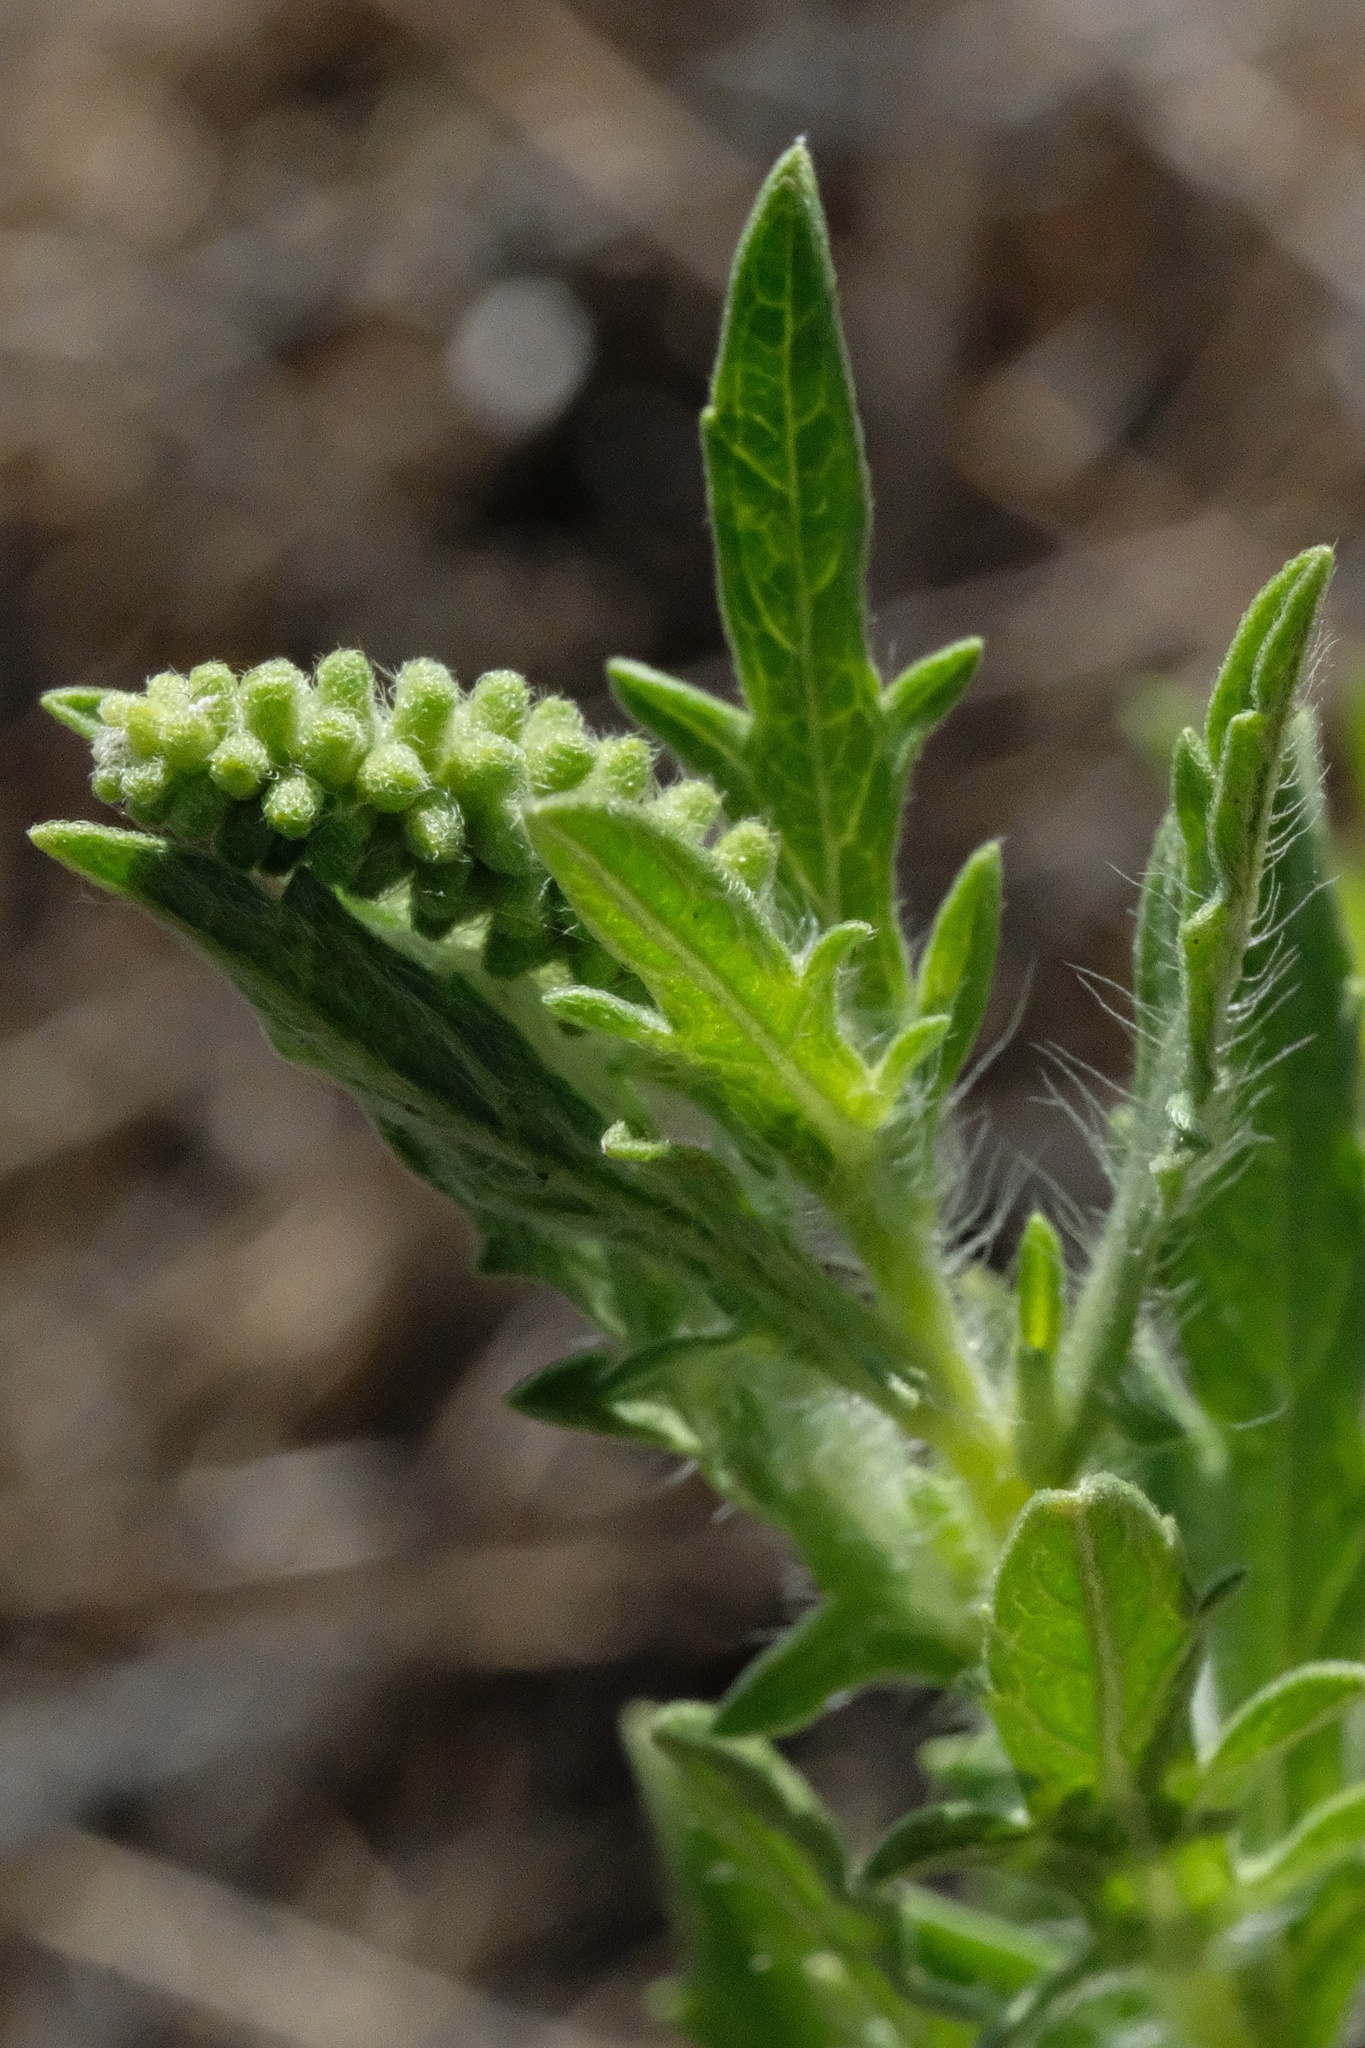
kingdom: Plantae
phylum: Tracheophyta
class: Magnoliopsida
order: Asterales
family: Asteraceae
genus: Ambrosia
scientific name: Ambrosia psilostachya
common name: Perennial ragweed
